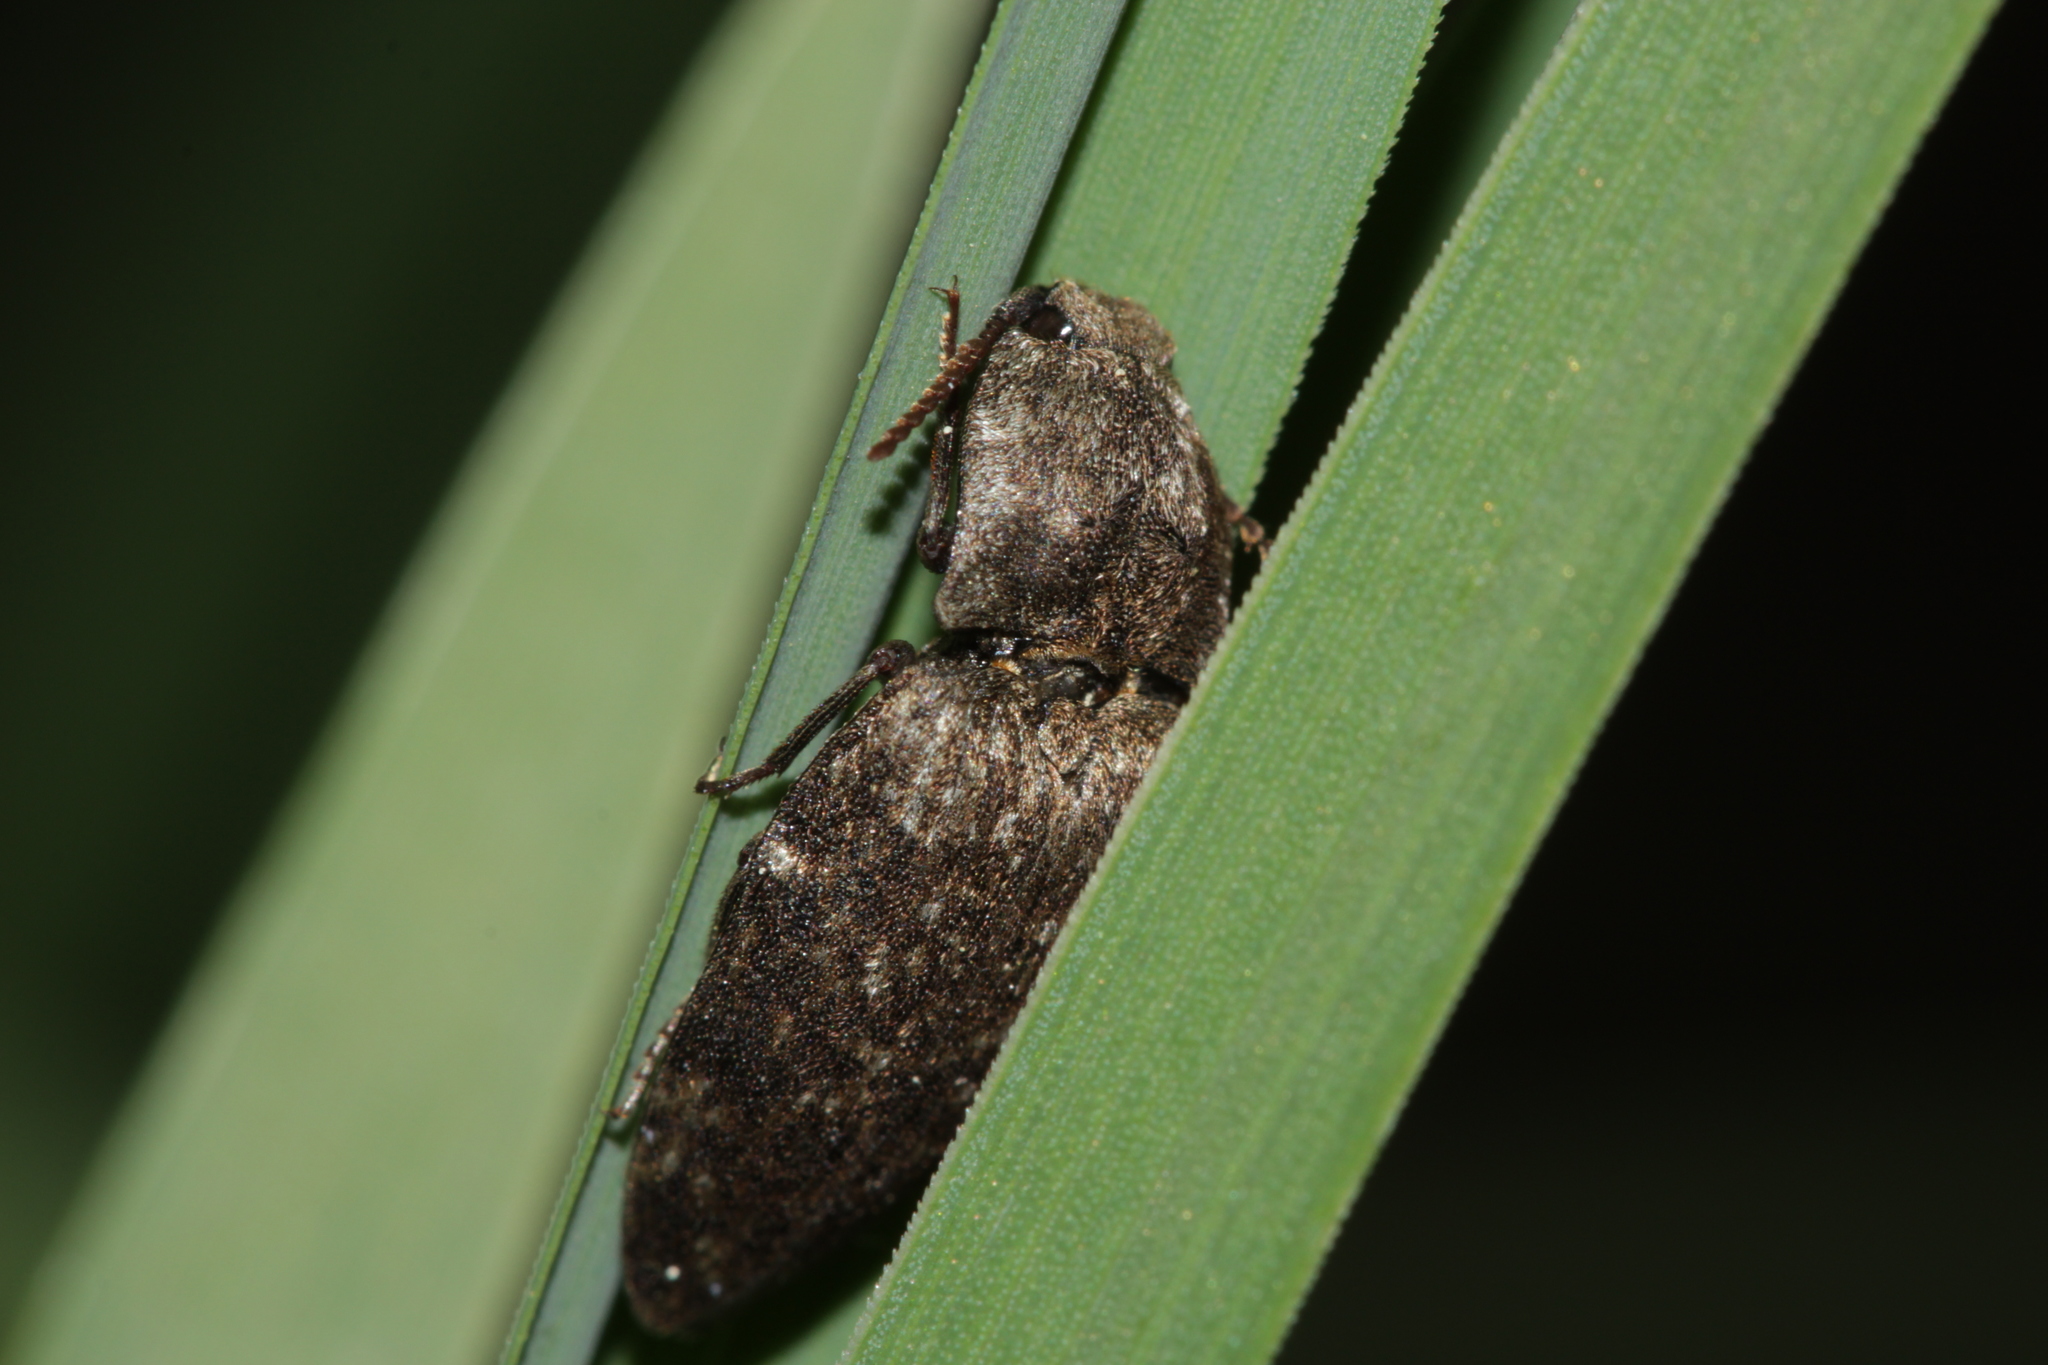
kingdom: Animalia
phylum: Arthropoda
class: Insecta
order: Coleoptera
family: Elateridae
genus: Agrypnus
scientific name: Agrypnus murinus
